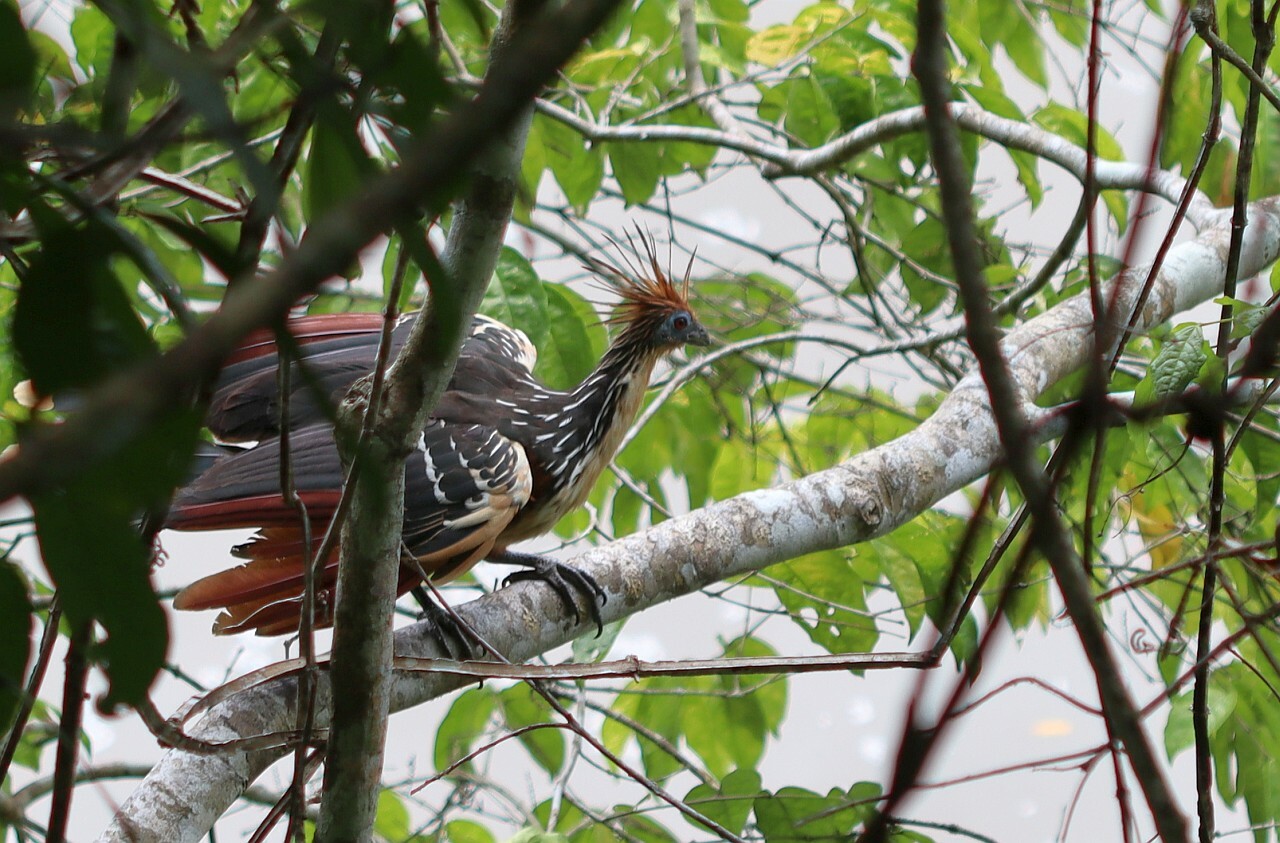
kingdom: Animalia
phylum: Chordata
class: Aves
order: Opisthocomiformes
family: Opisthocomidae
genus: Opisthocomus
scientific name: Opisthocomus hoazin
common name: Hoatzin
